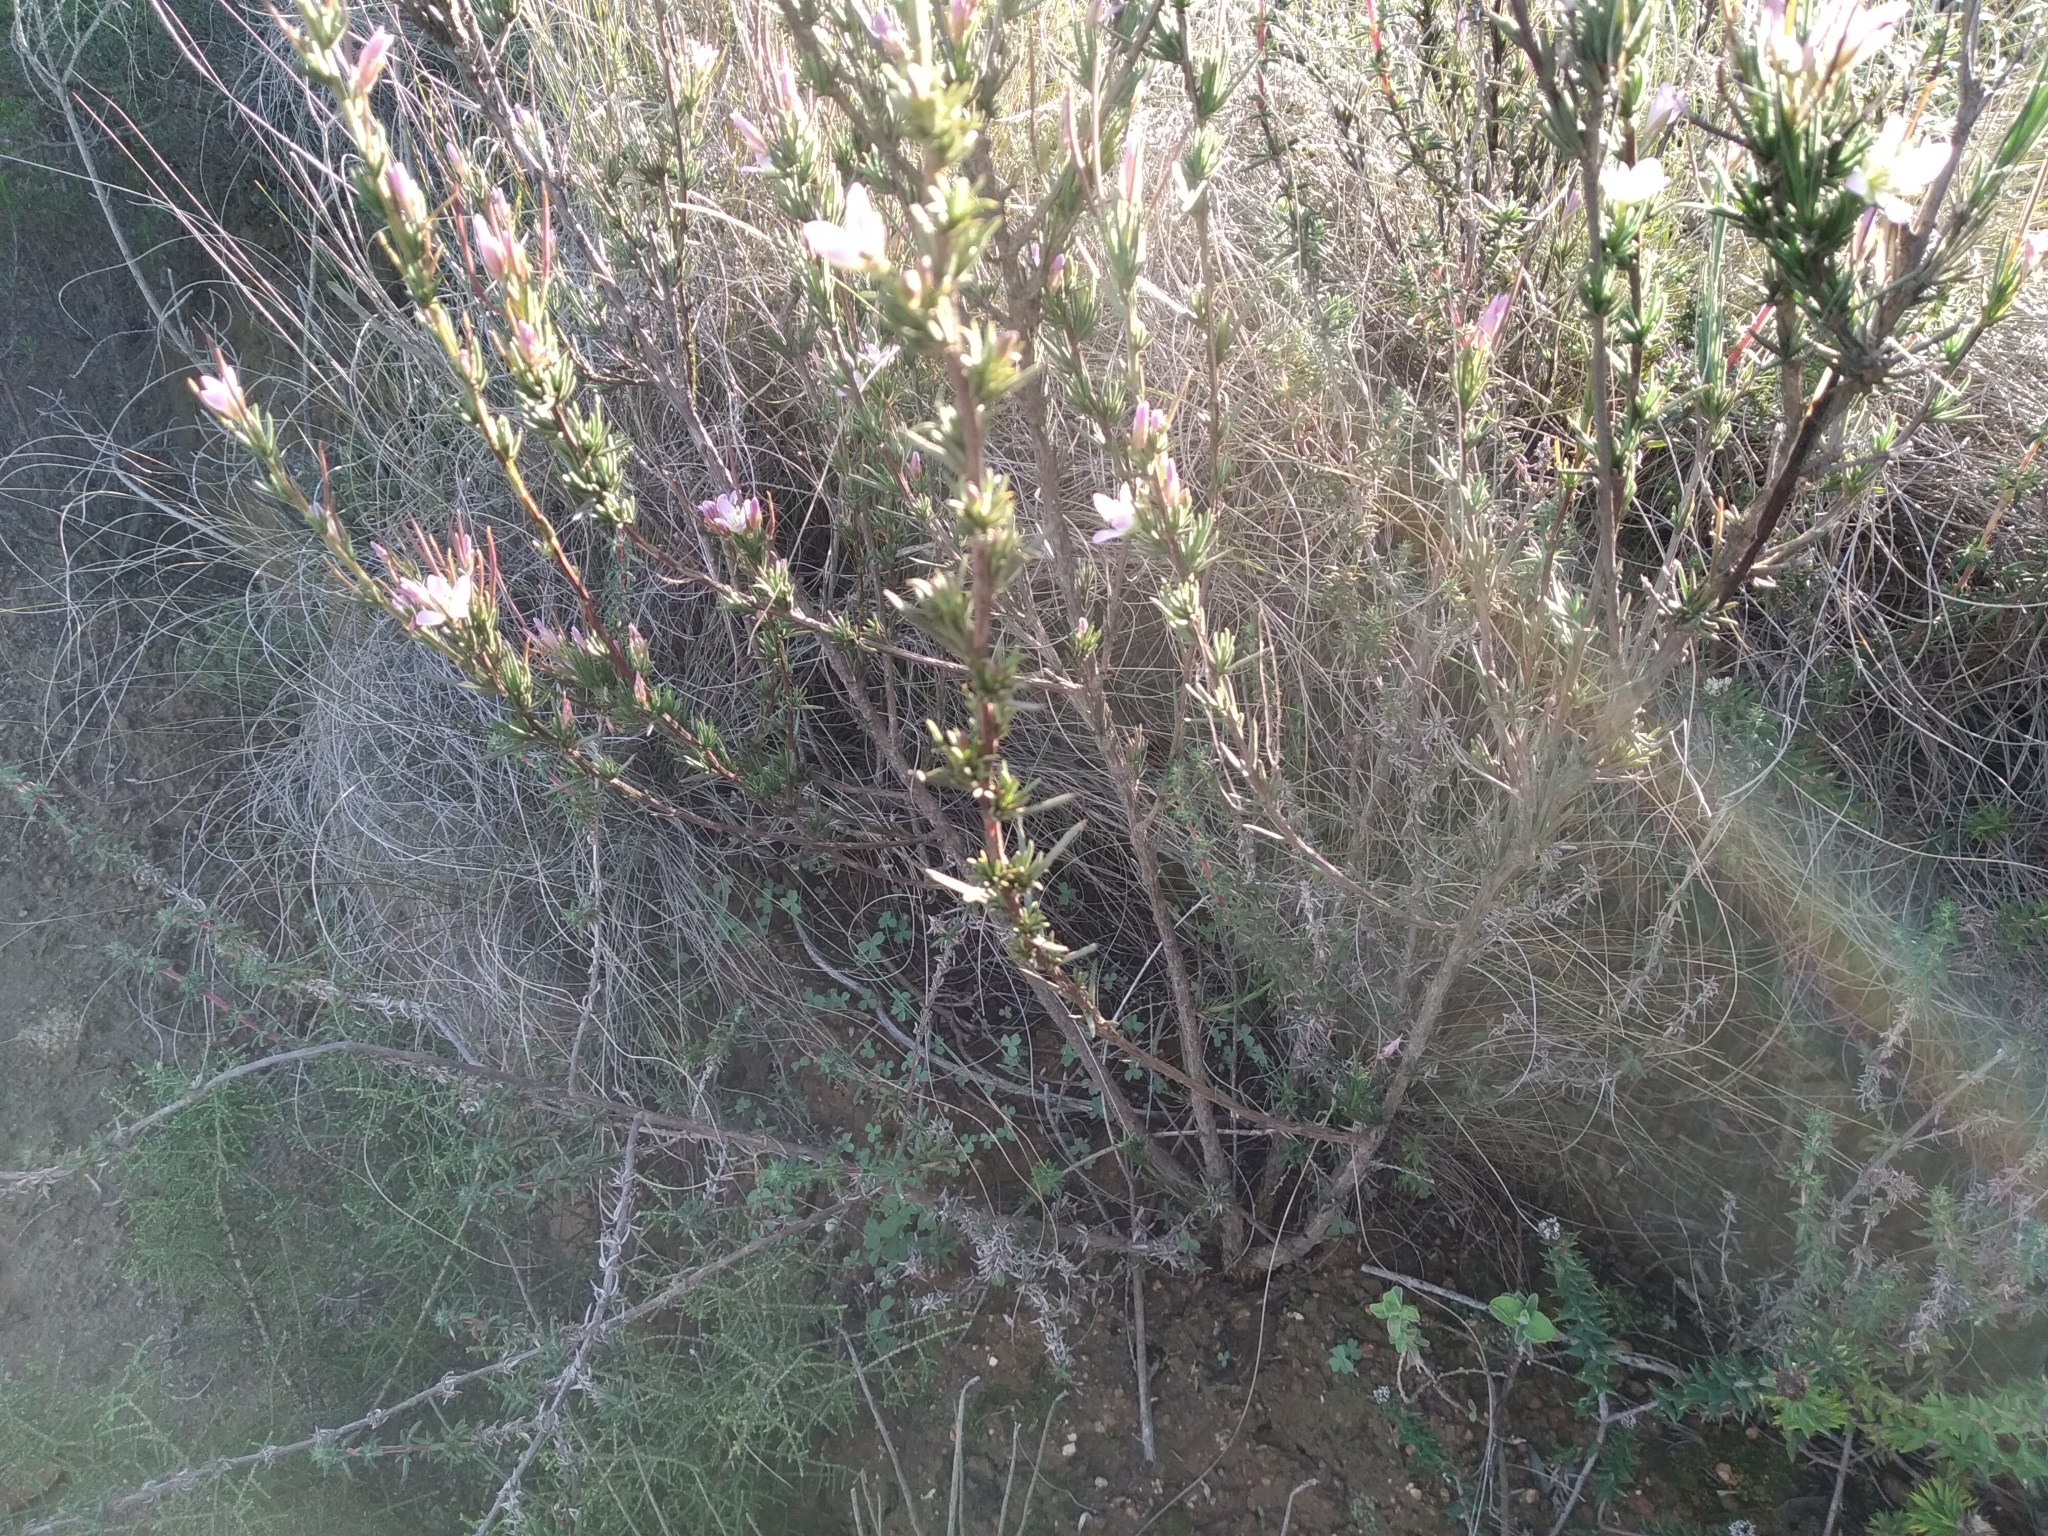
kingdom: Plantae
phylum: Tracheophyta
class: Magnoliopsida
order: Brassicales
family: Brassicaceae
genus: Heliophila
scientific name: Heliophila scoparia
